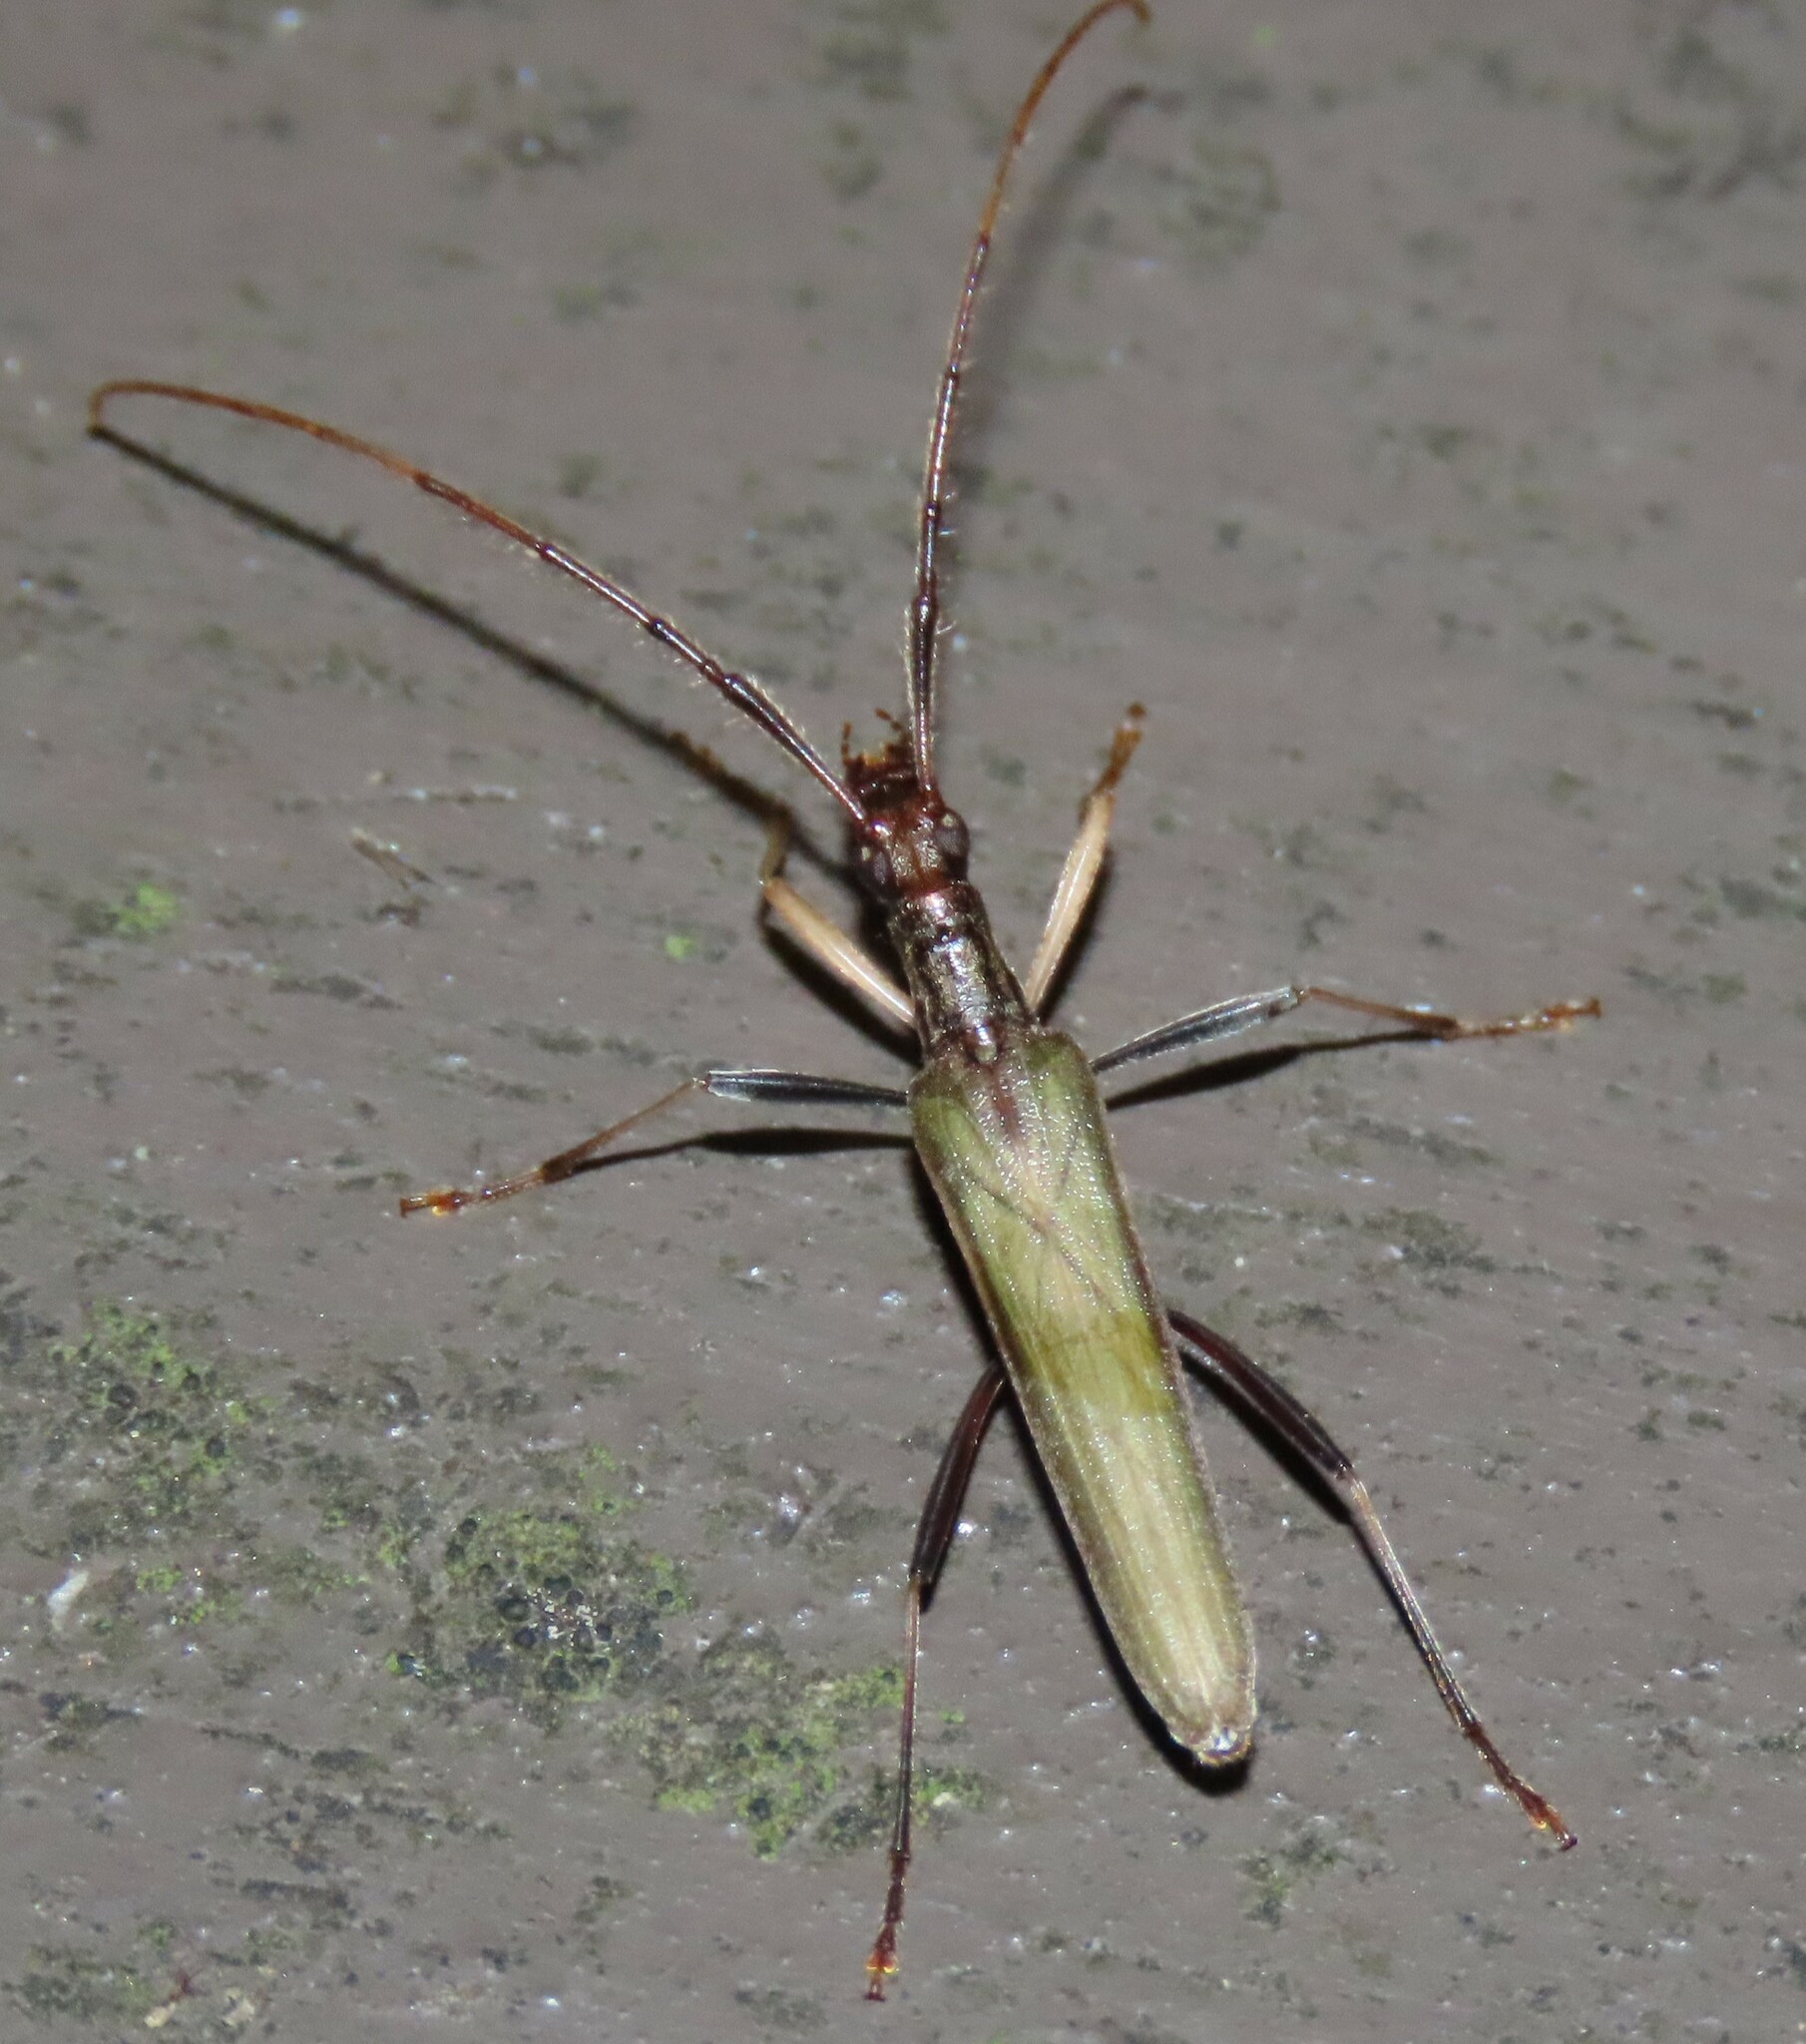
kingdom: Animalia
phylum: Arthropoda
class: Insecta
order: Coleoptera
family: Cerambycidae
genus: Stenopotes
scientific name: Stenopotes pallidus
